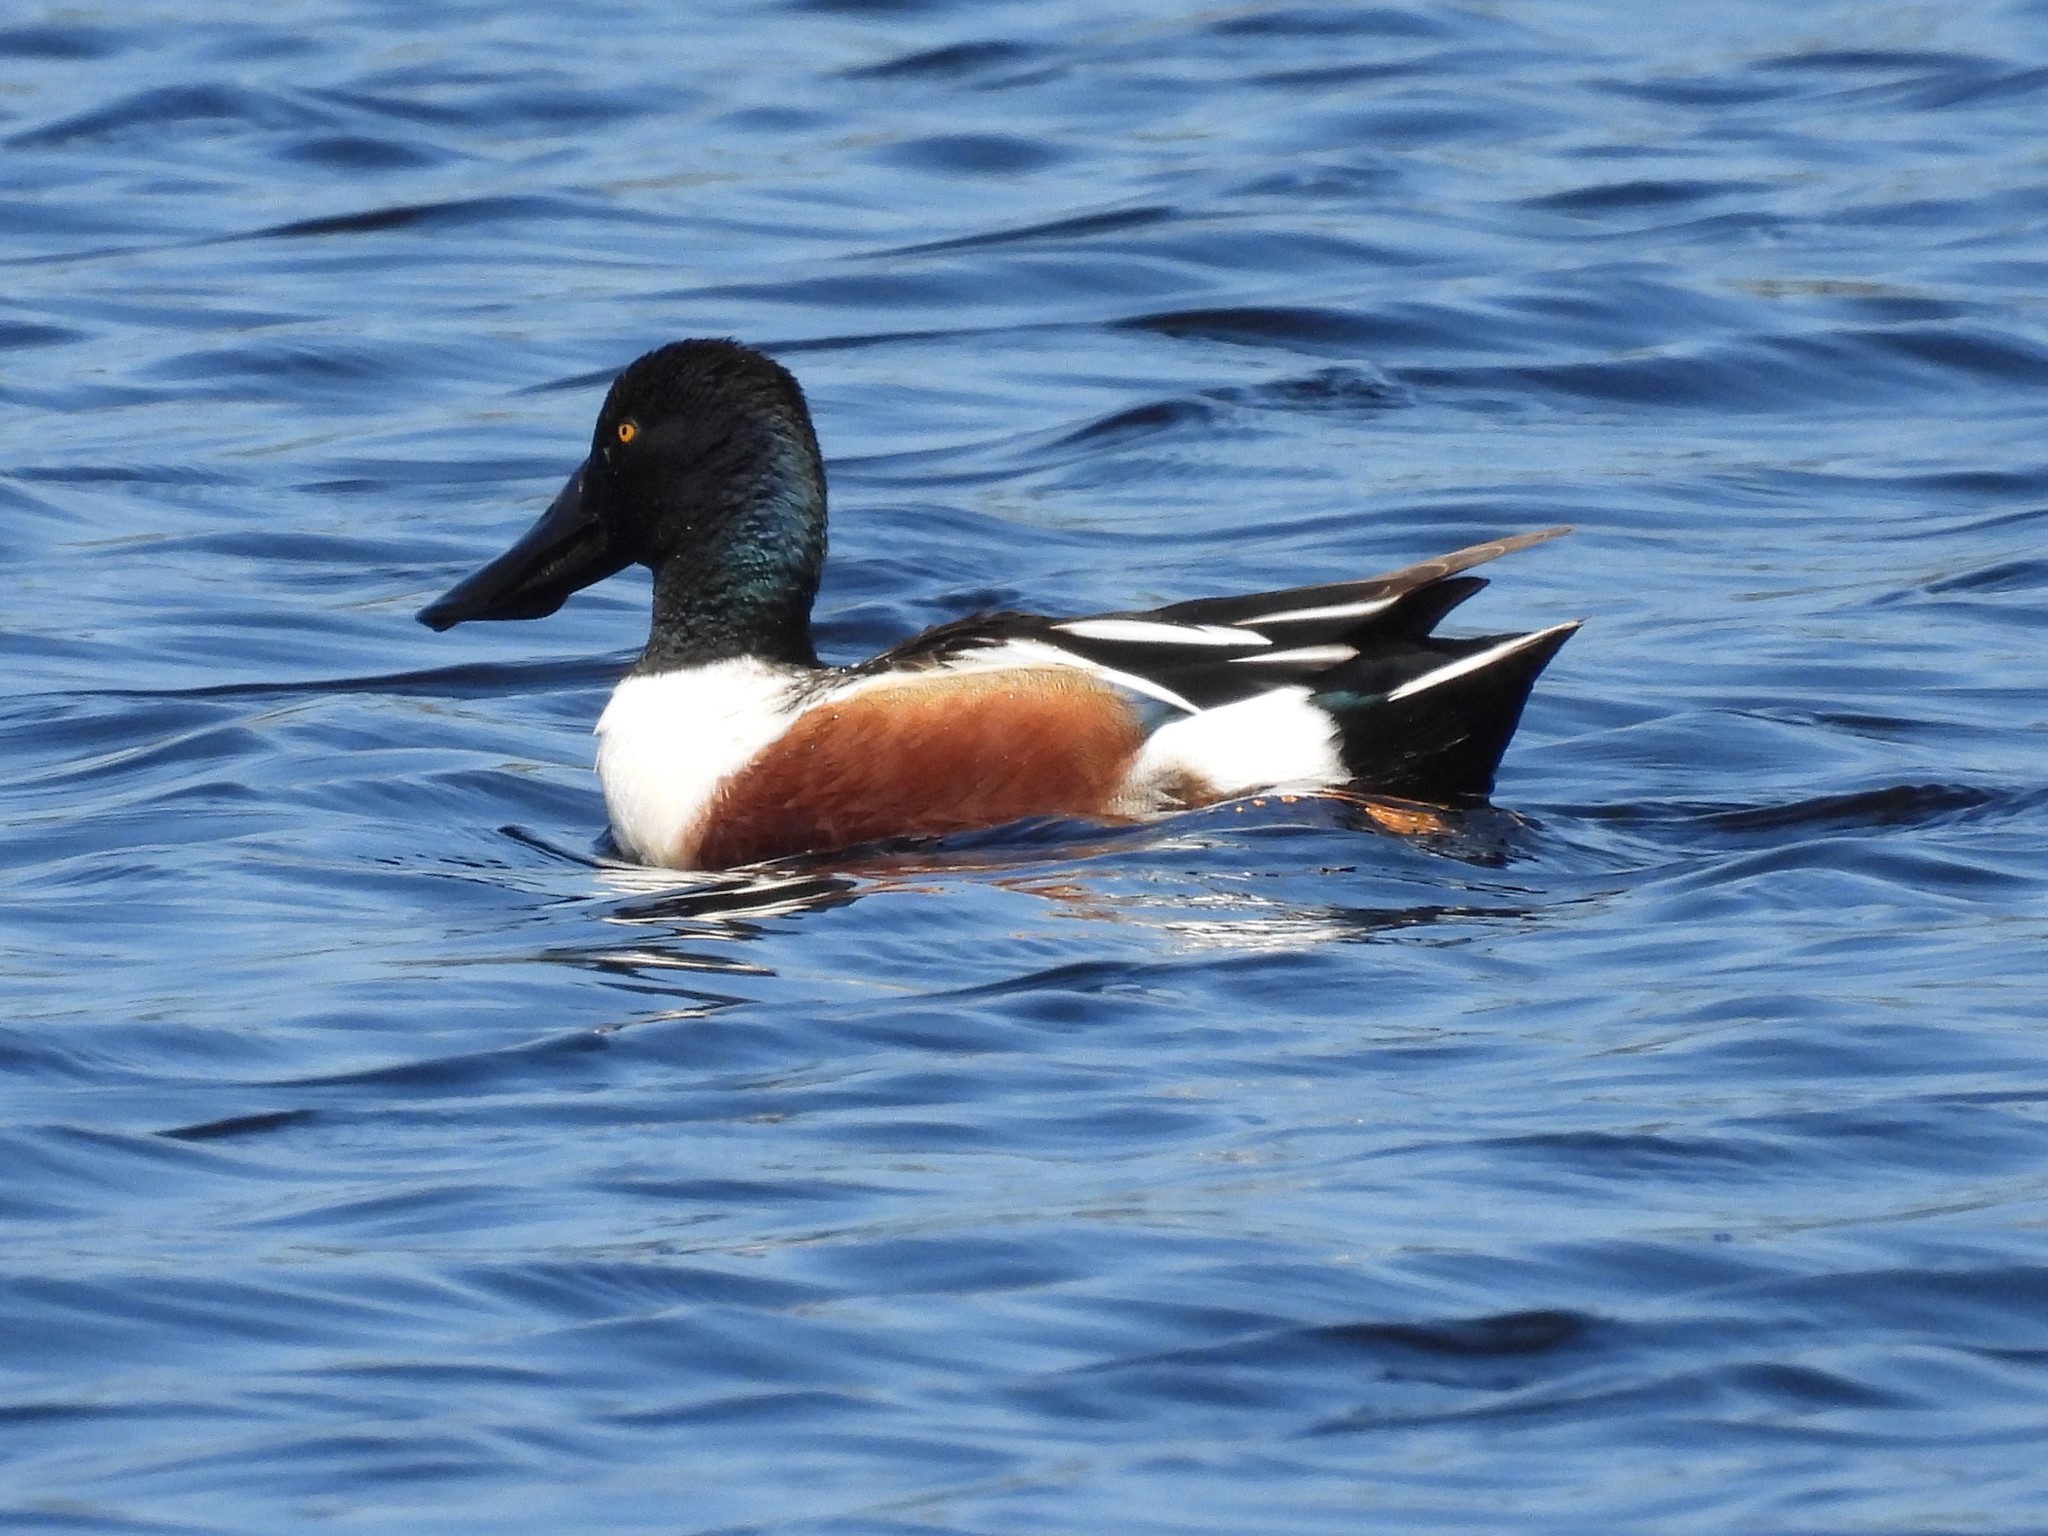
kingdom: Animalia
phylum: Chordata
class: Aves
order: Anseriformes
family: Anatidae
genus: Spatula
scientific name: Spatula clypeata
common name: Northern shoveler
